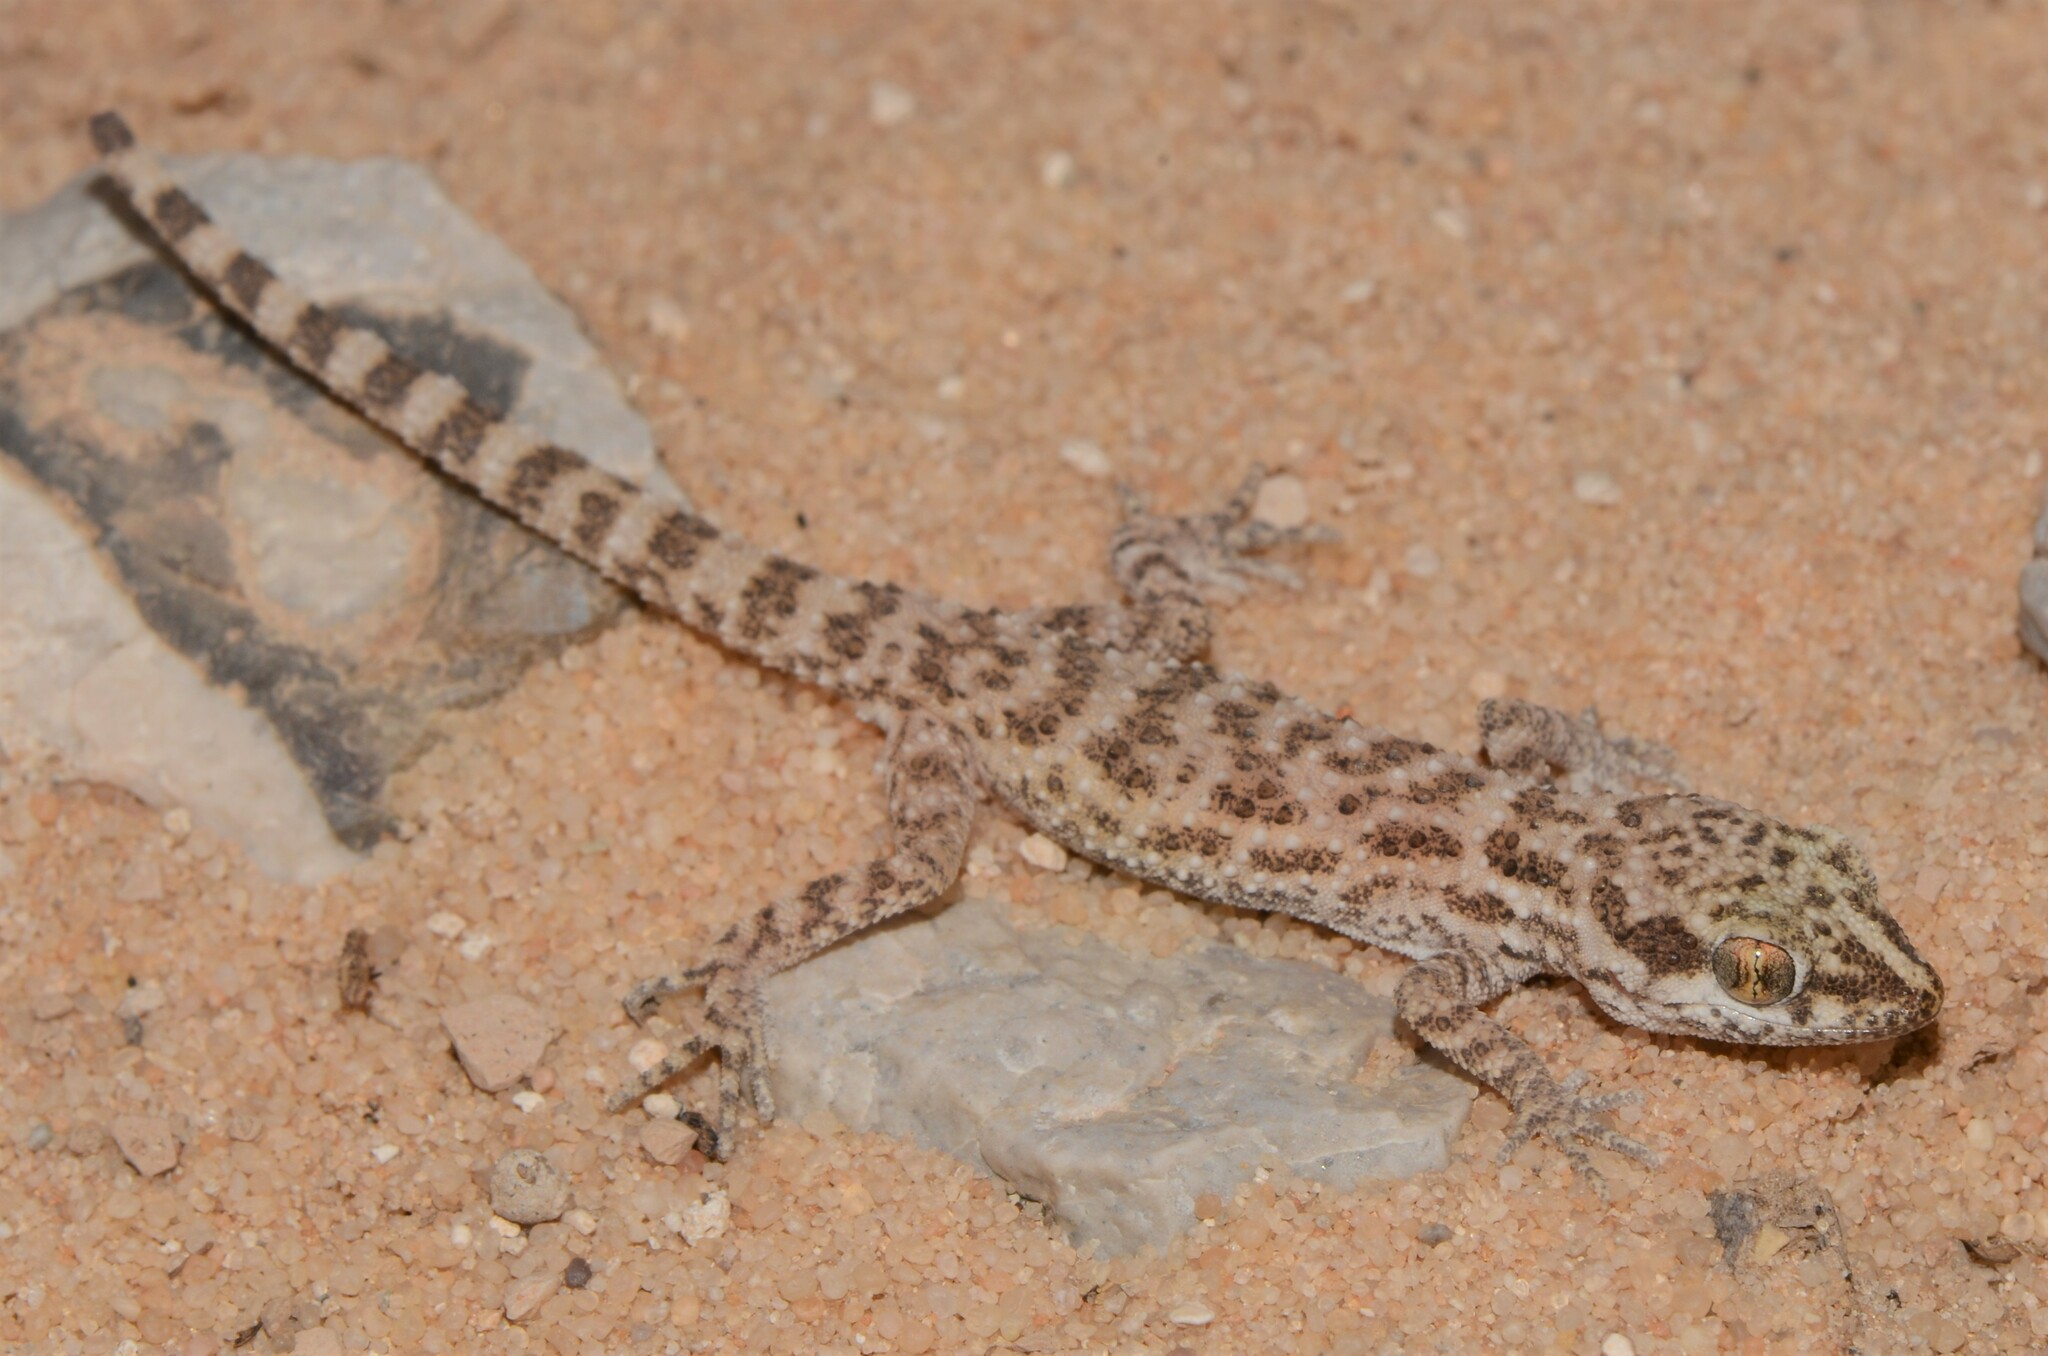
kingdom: Animalia
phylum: Chordata
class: Squamata
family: Gekkonidae
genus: Bunopus
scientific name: Bunopus tuberculatus
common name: Southern tuberculated gecko
